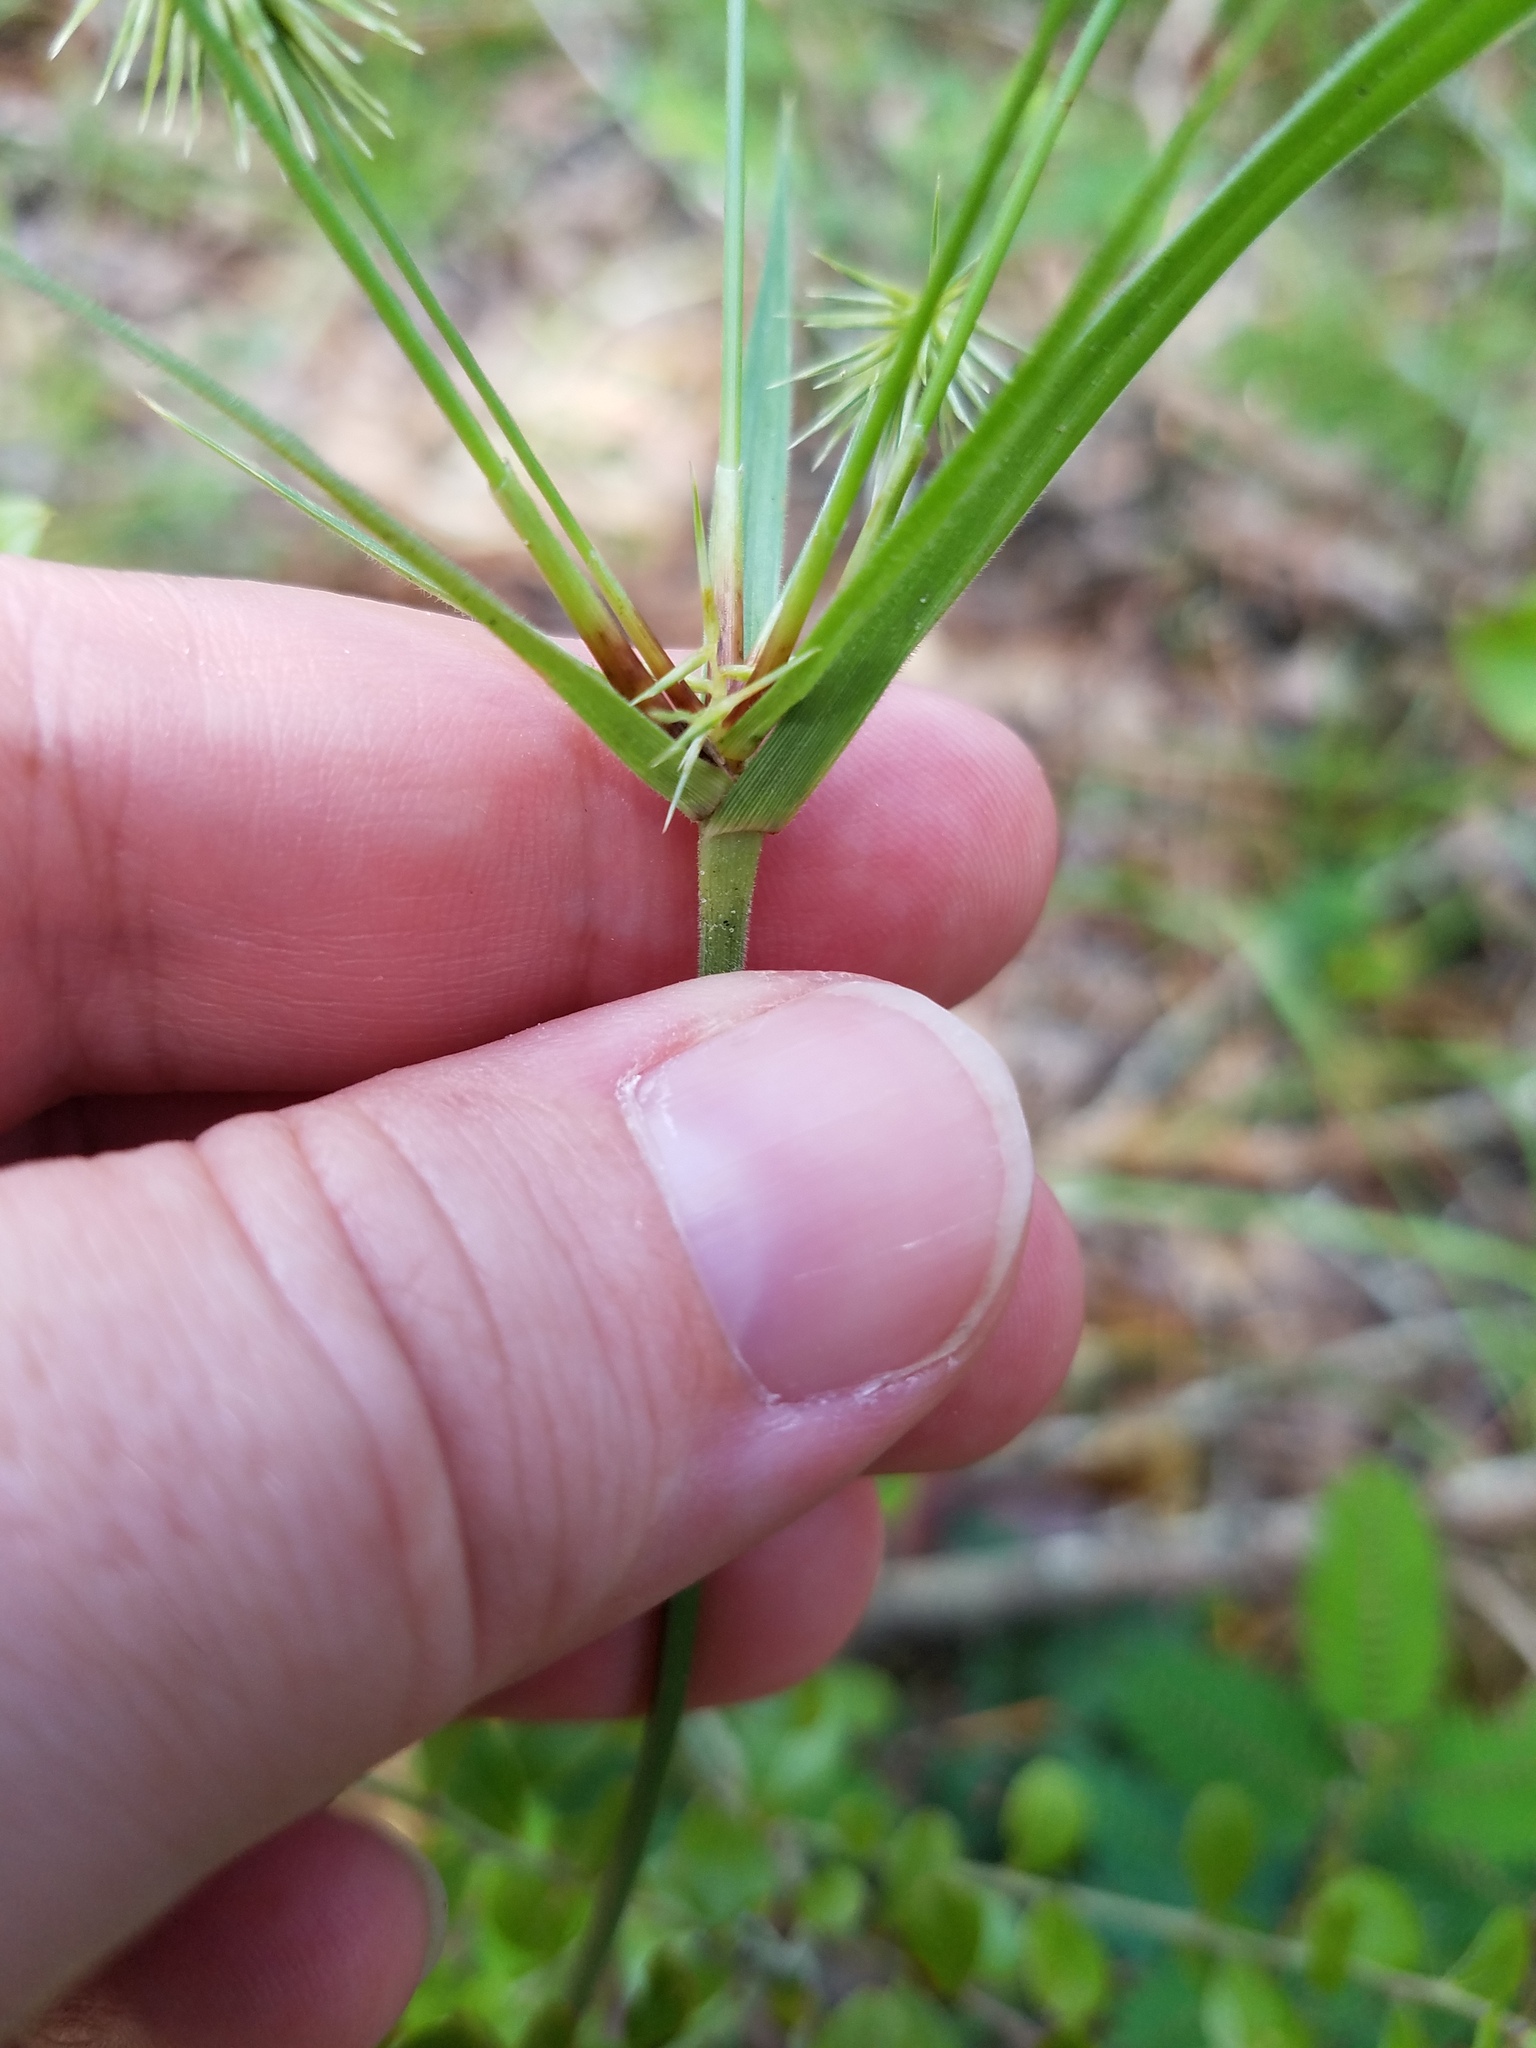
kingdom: Plantae
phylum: Tracheophyta
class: Liliopsida
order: Poales
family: Cyperaceae
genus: Cyperus
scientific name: Cyperus plukenetii
